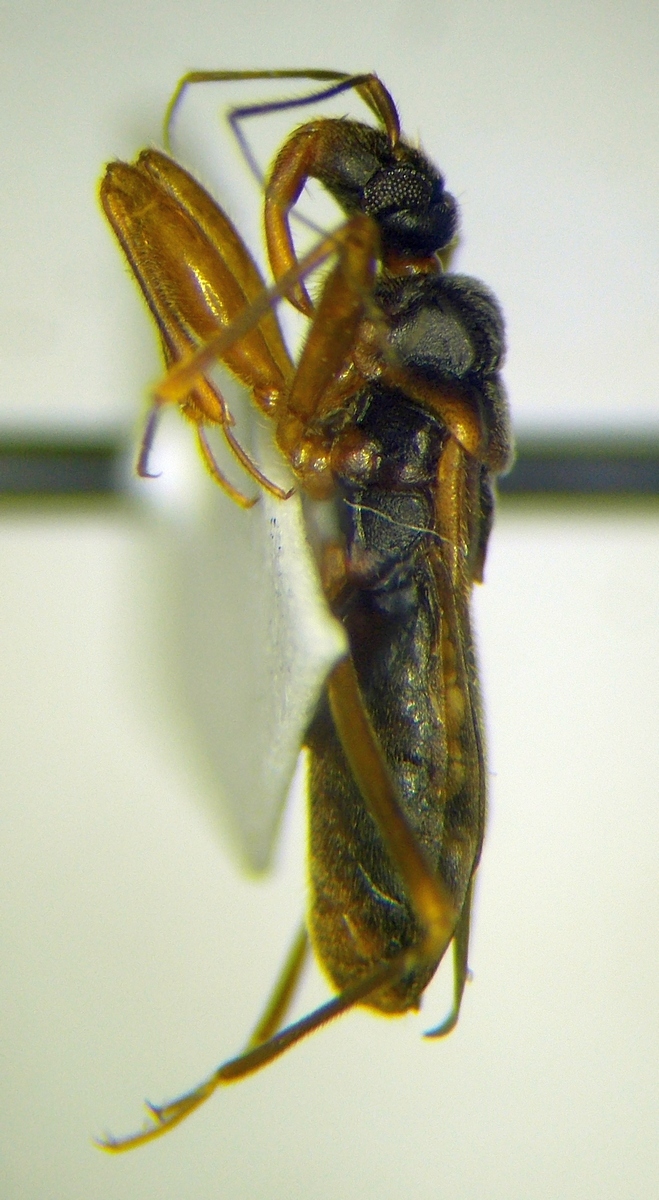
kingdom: Animalia
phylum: Arthropoda
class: Insecta
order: Hemiptera
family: Reduviidae
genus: Pasira
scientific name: Pasira basiptera
